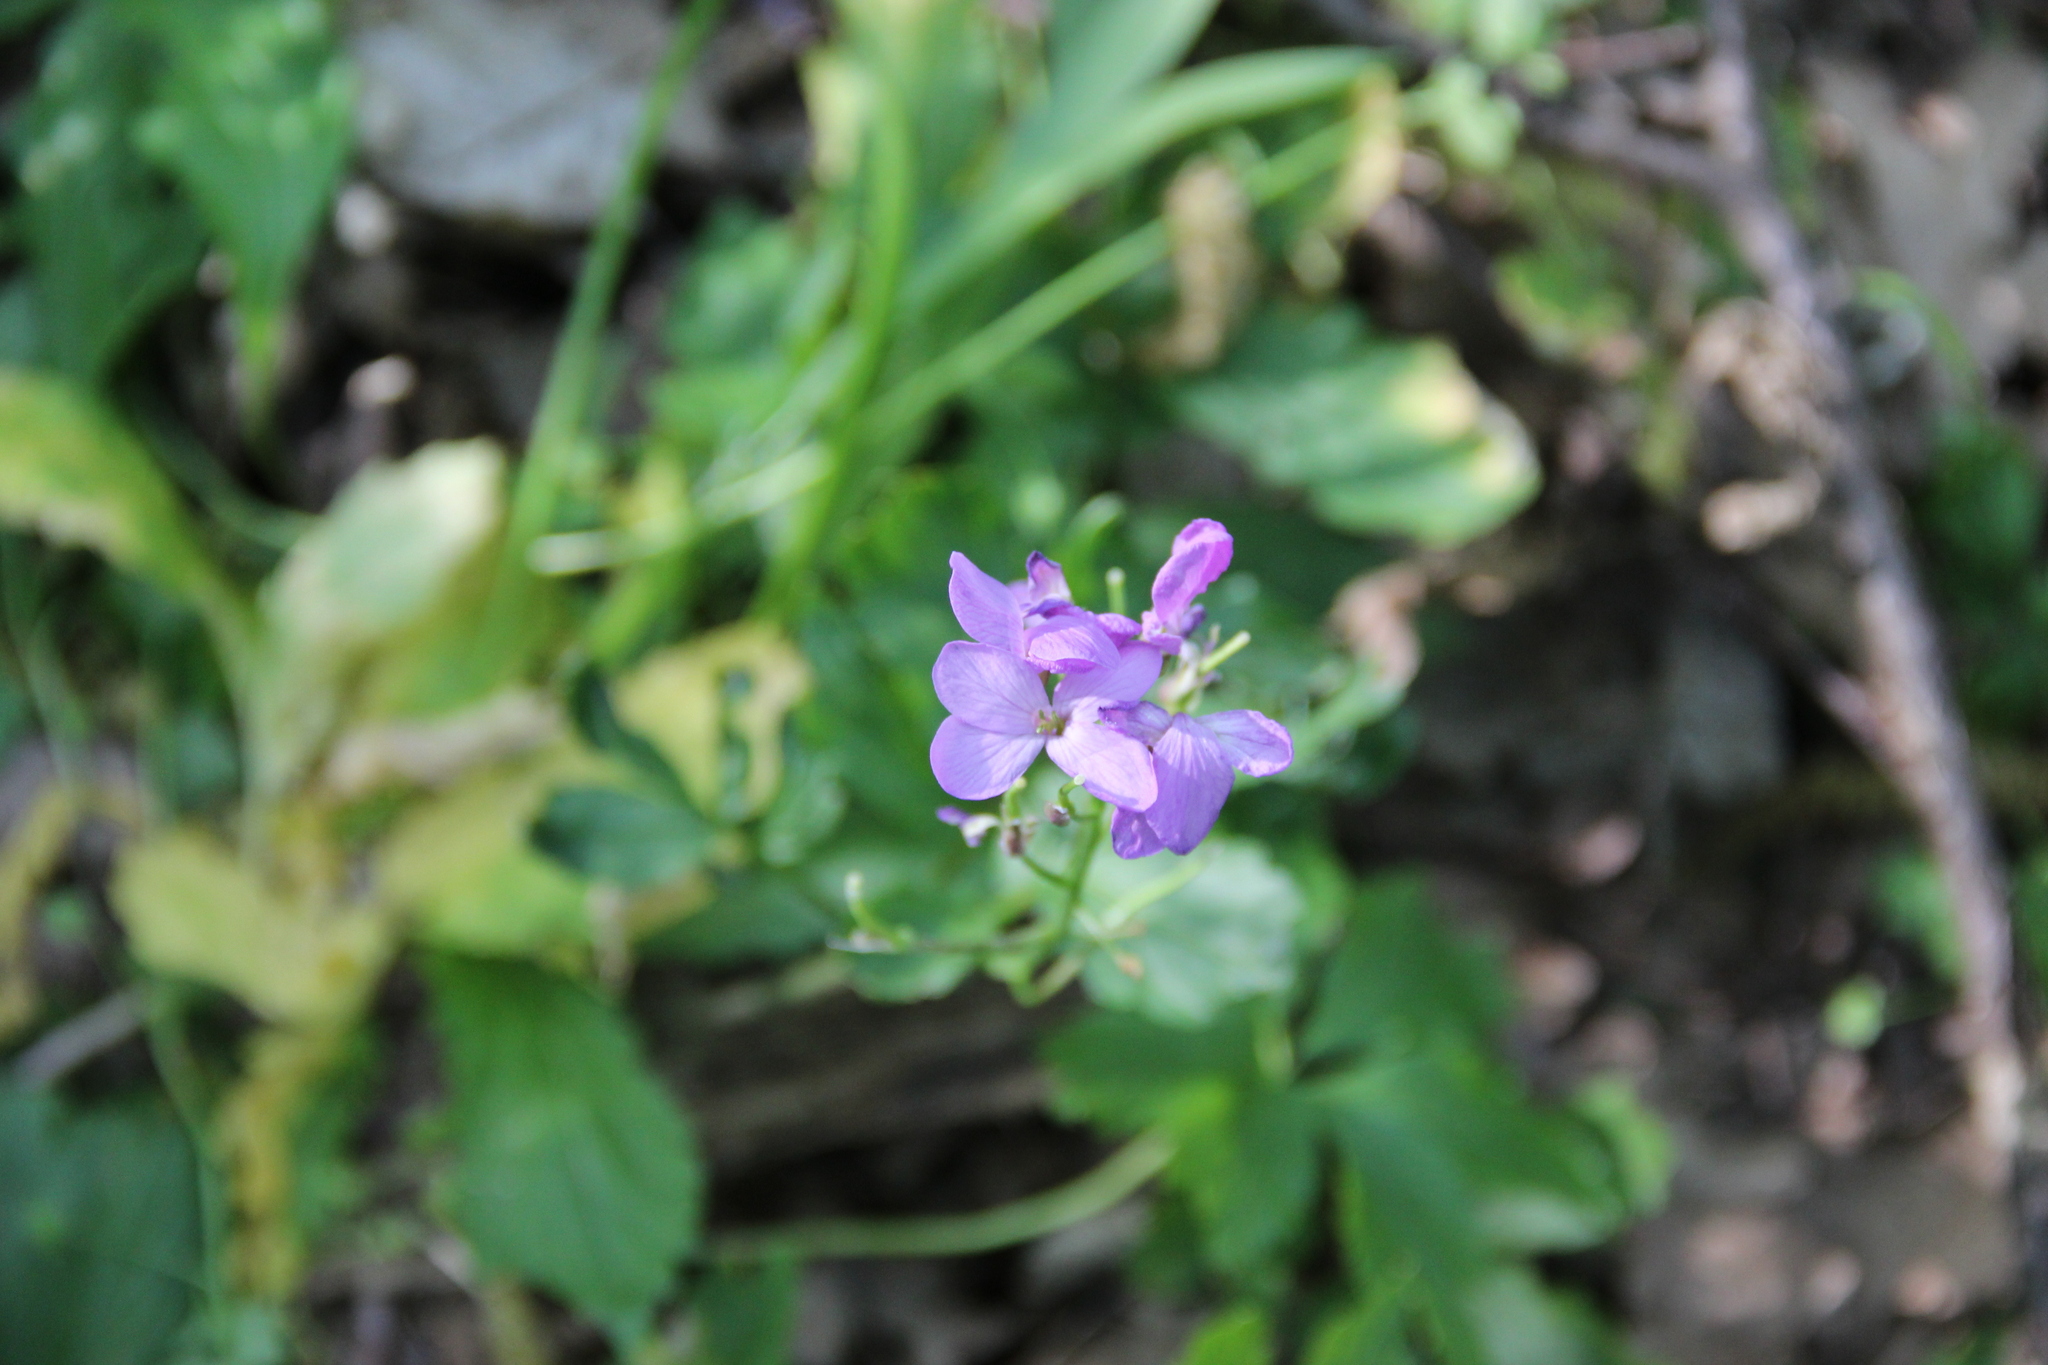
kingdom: Plantae
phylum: Tracheophyta
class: Magnoliopsida
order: Brassicales
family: Brassicaceae
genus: Cardamine
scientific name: Cardamine quinquefolia
